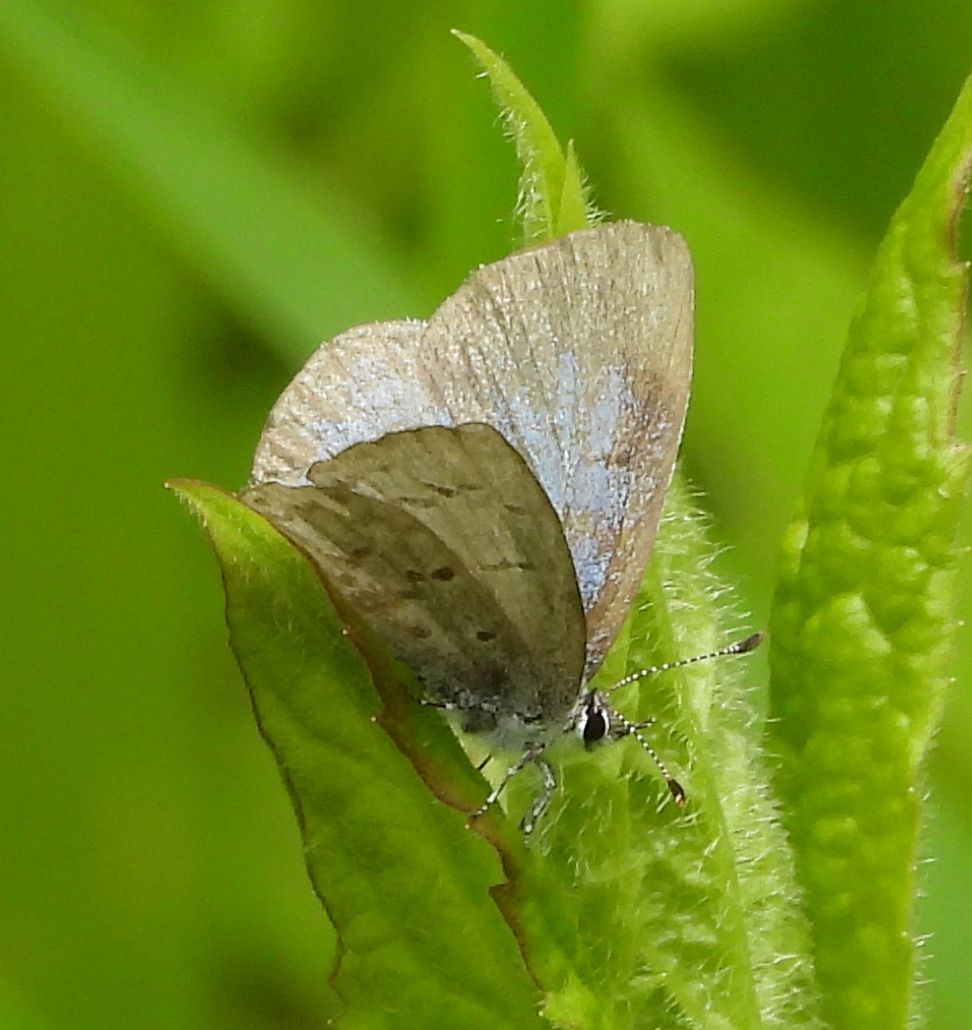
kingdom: Animalia
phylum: Arthropoda
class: Insecta
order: Lepidoptera
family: Lycaenidae
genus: Celastrina
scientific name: Celastrina lucia
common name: Lucia azure
